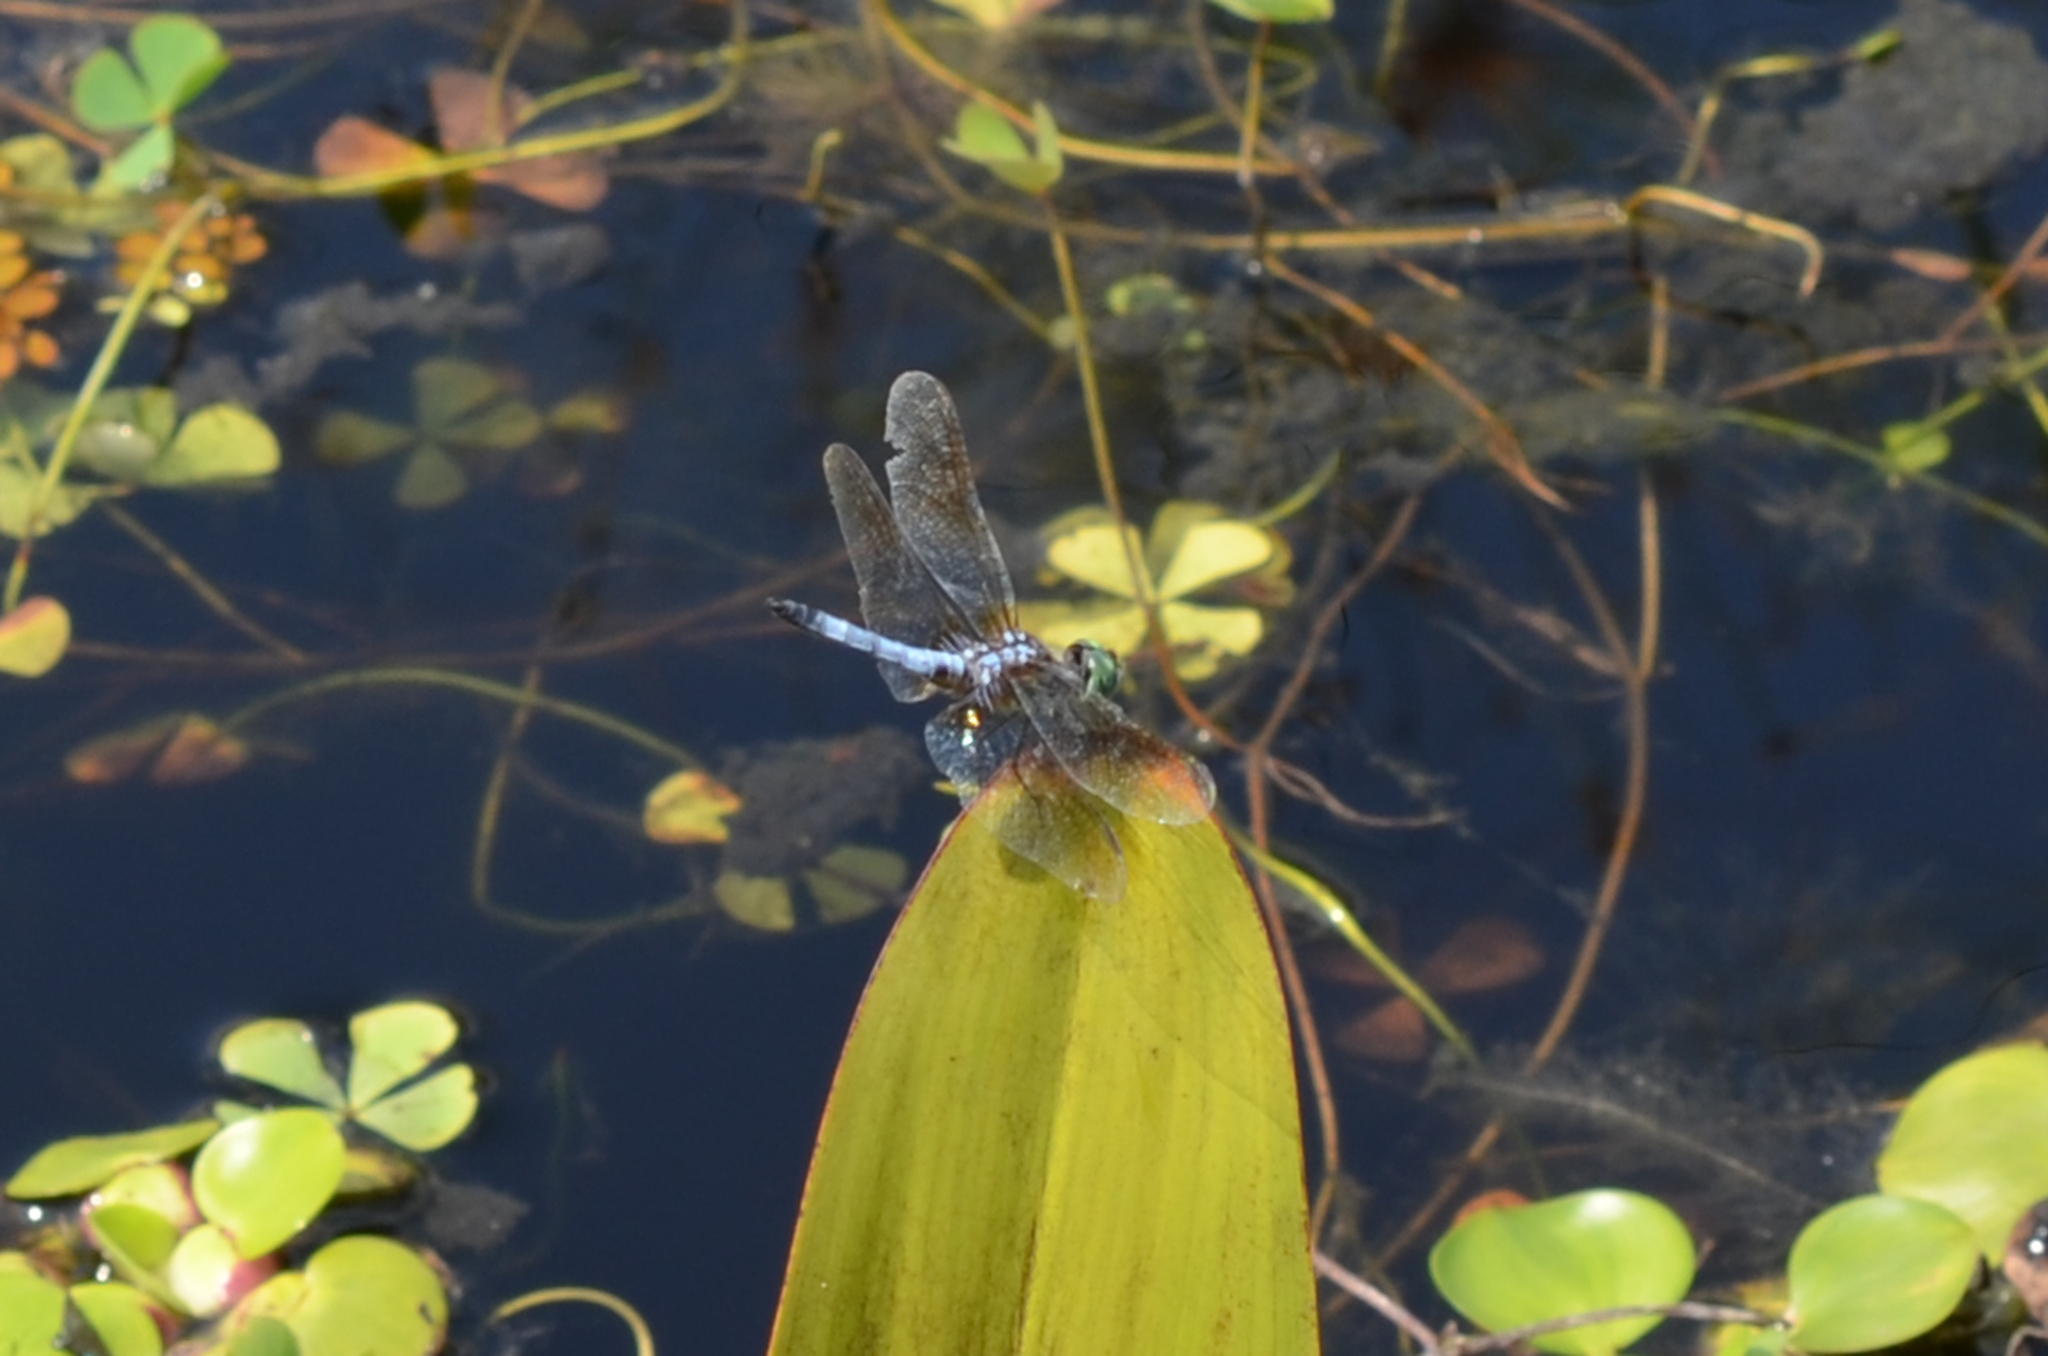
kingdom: Animalia
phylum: Arthropoda
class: Insecta
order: Odonata
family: Libellulidae
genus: Pachydiplax
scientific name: Pachydiplax longipennis
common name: Blue dasher
